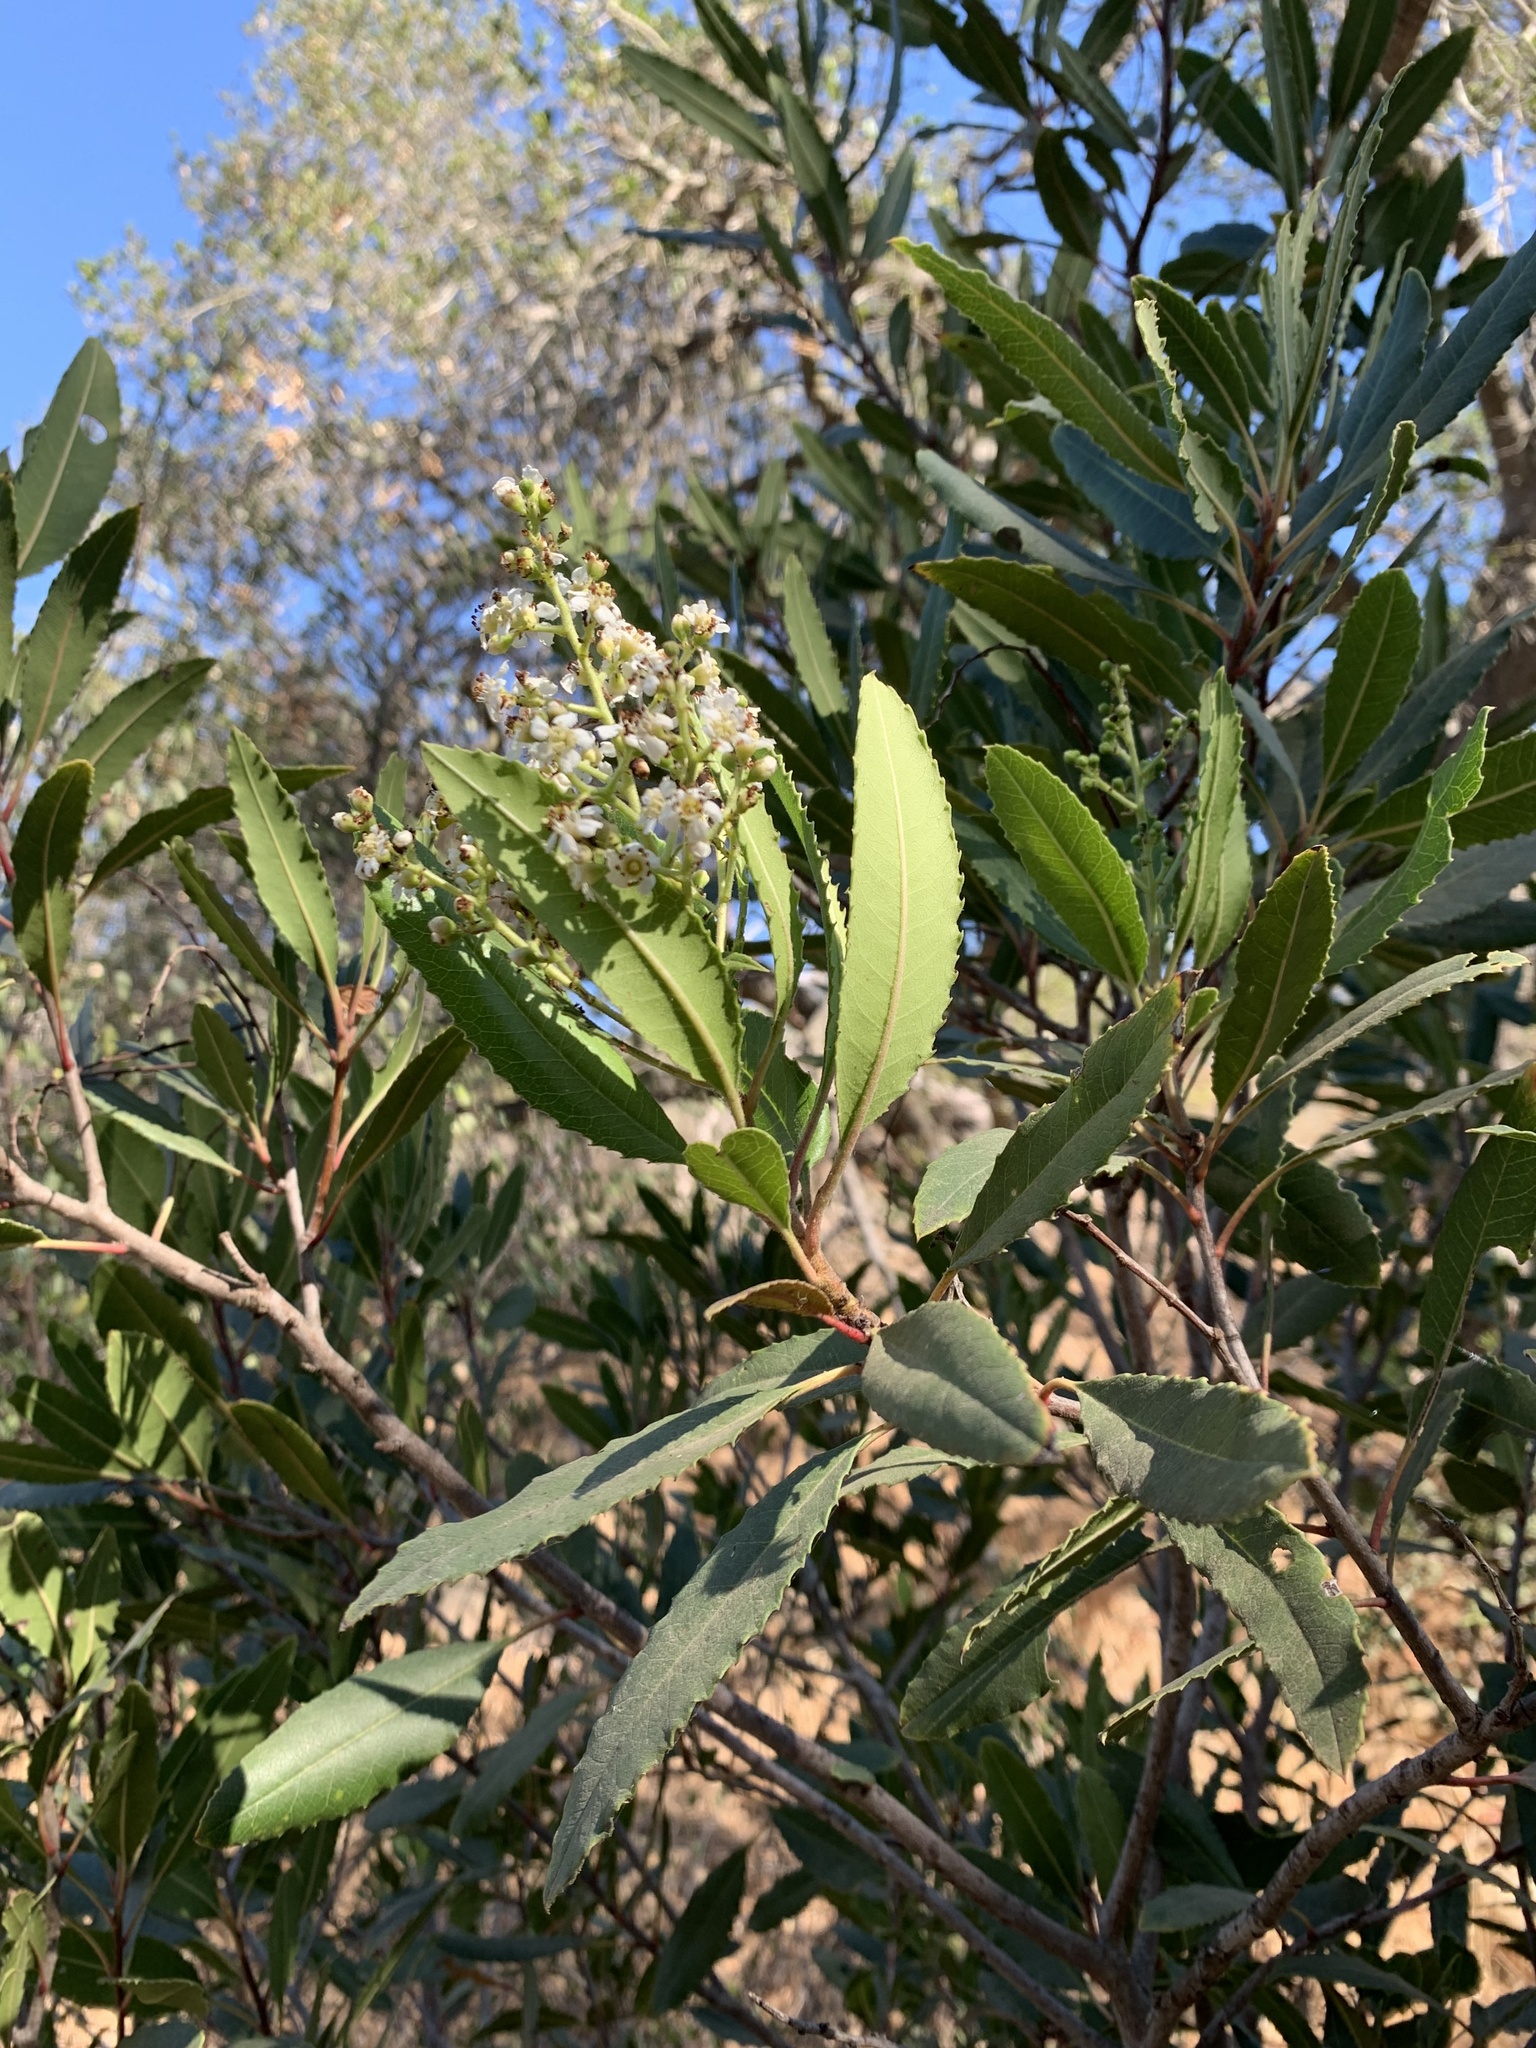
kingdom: Plantae
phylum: Tracheophyta
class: Magnoliopsida
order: Rosales
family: Rosaceae
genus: Heteromeles
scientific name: Heteromeles arbutifolia
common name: California-holly
